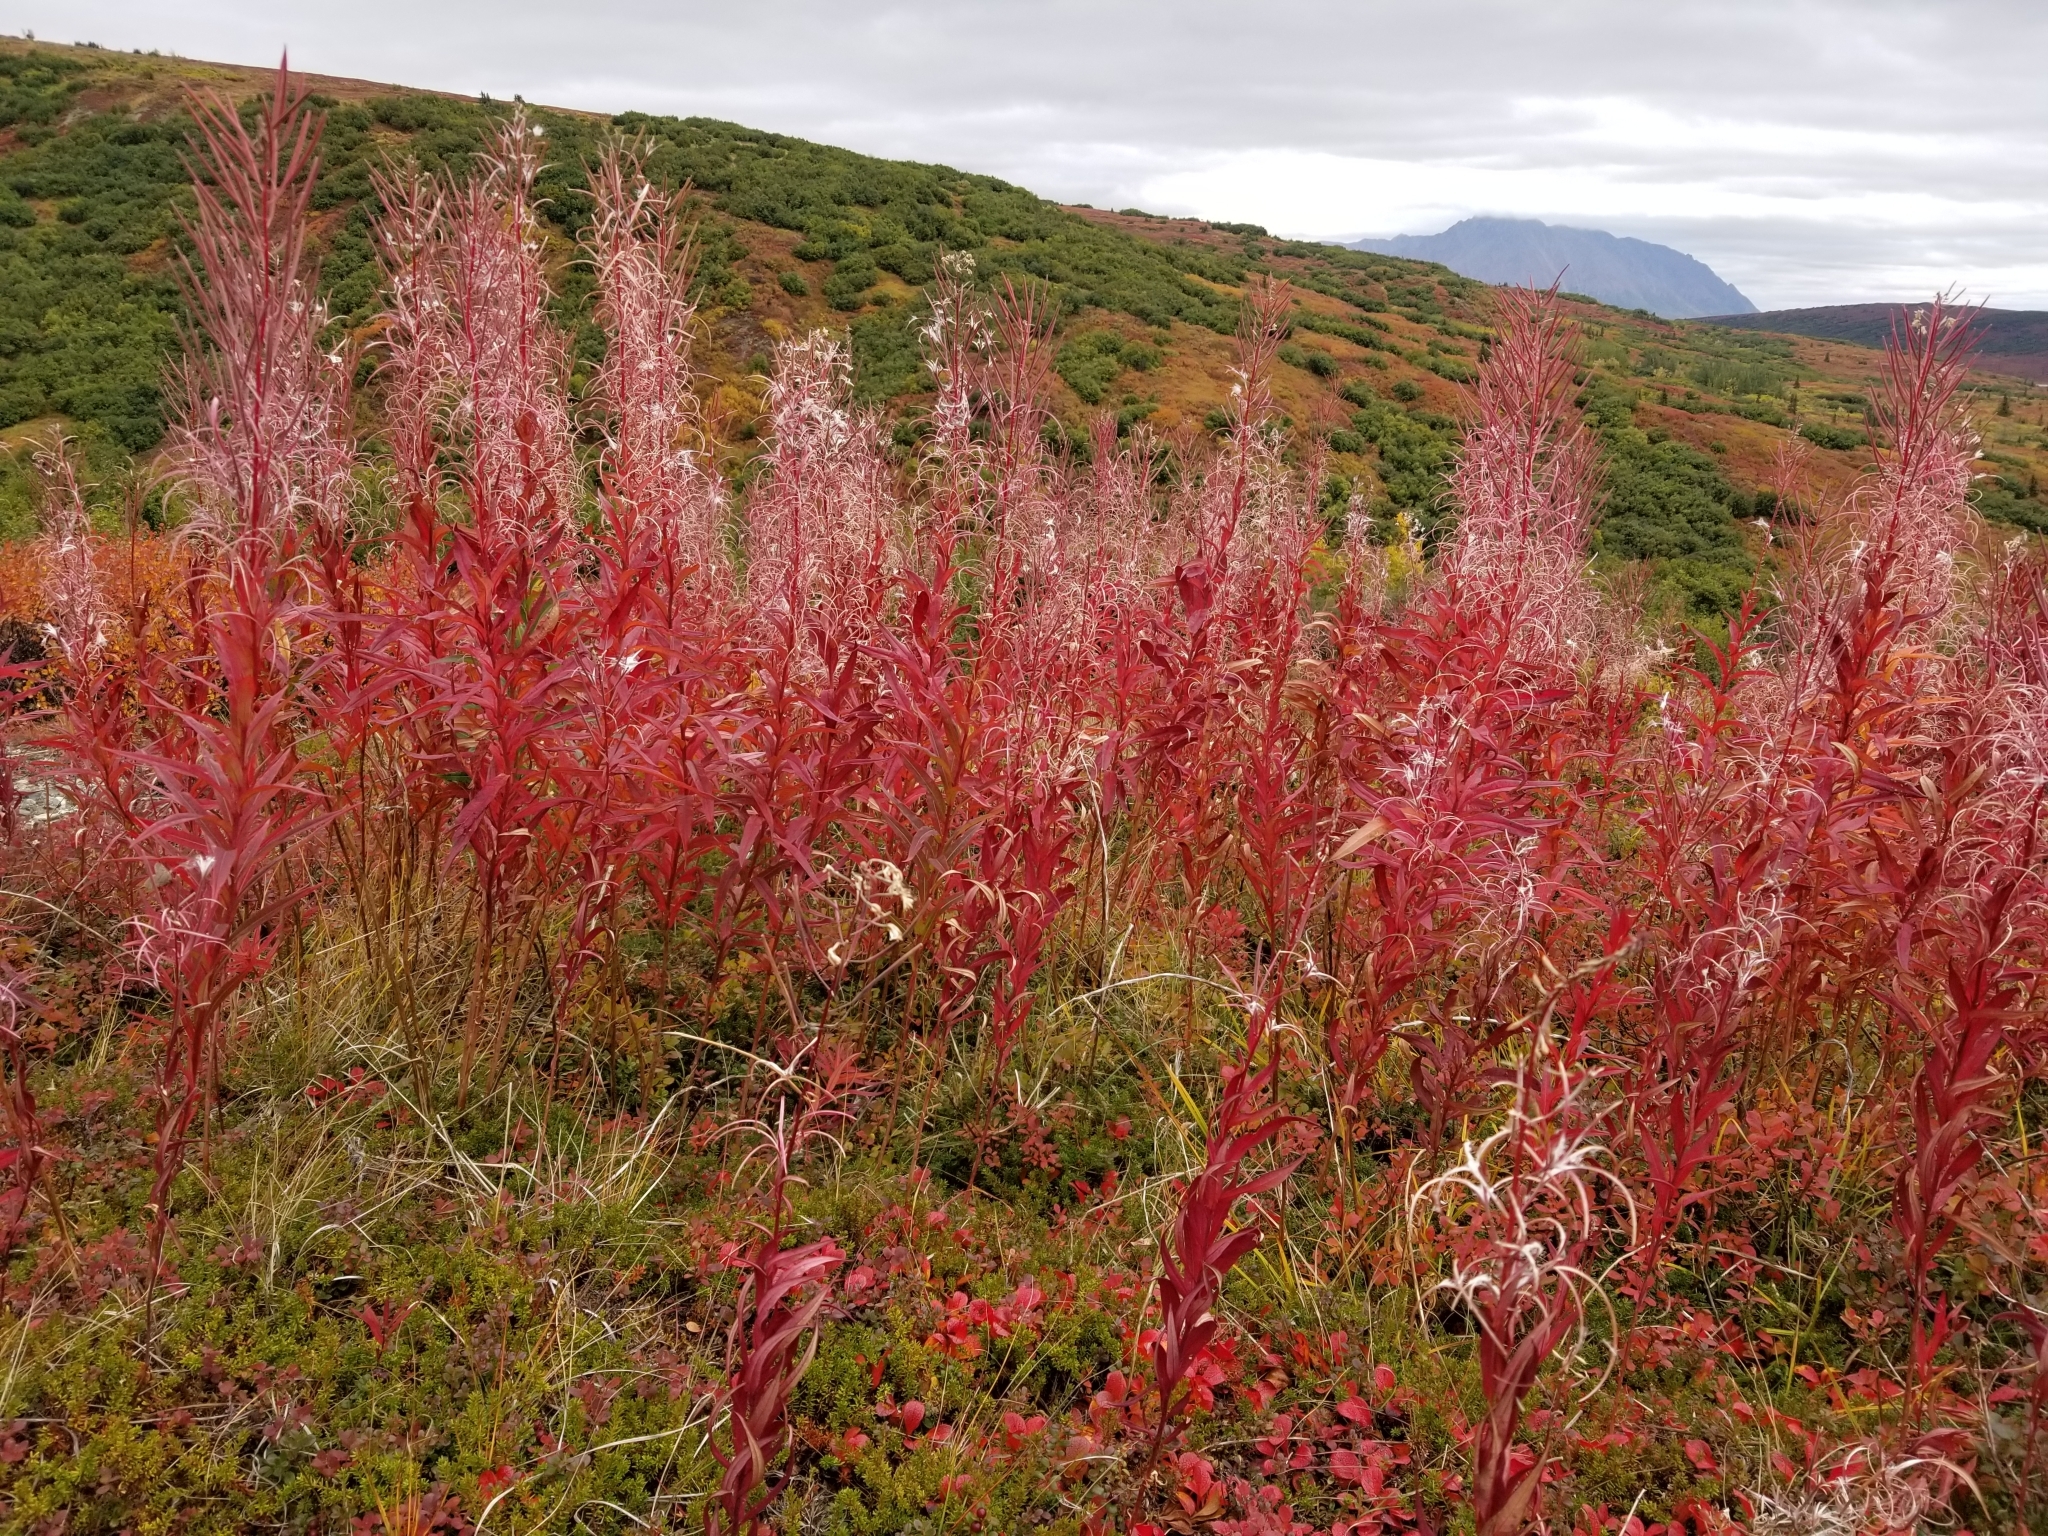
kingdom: Plantae
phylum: Tracheophyta
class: Magnoliopsida
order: Myrtales
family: Onagraceae
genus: Chamaenerion
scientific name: Chamaenerion angustifolium
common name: Fireweed
